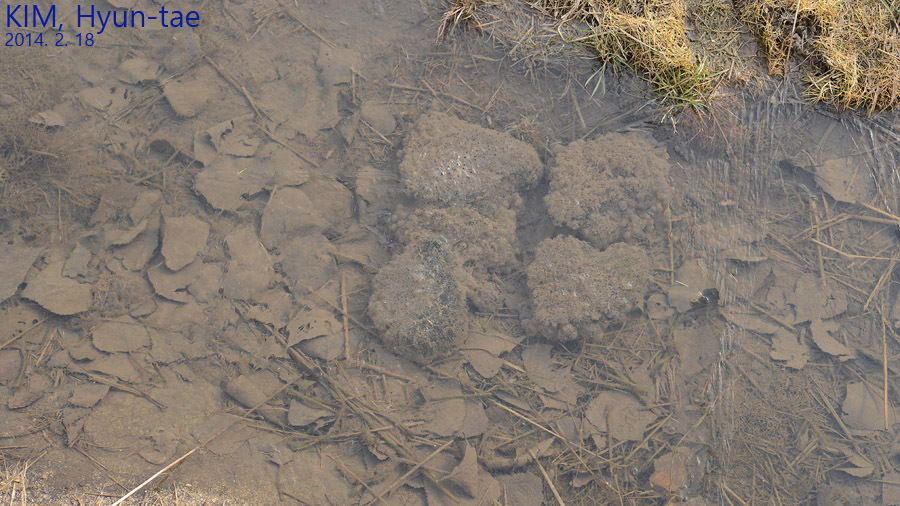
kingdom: Animalia
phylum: Chordata
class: Amphibia
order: Anura
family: Ranidae
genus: Rana
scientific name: Rana coreana
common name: Korean brown frog
